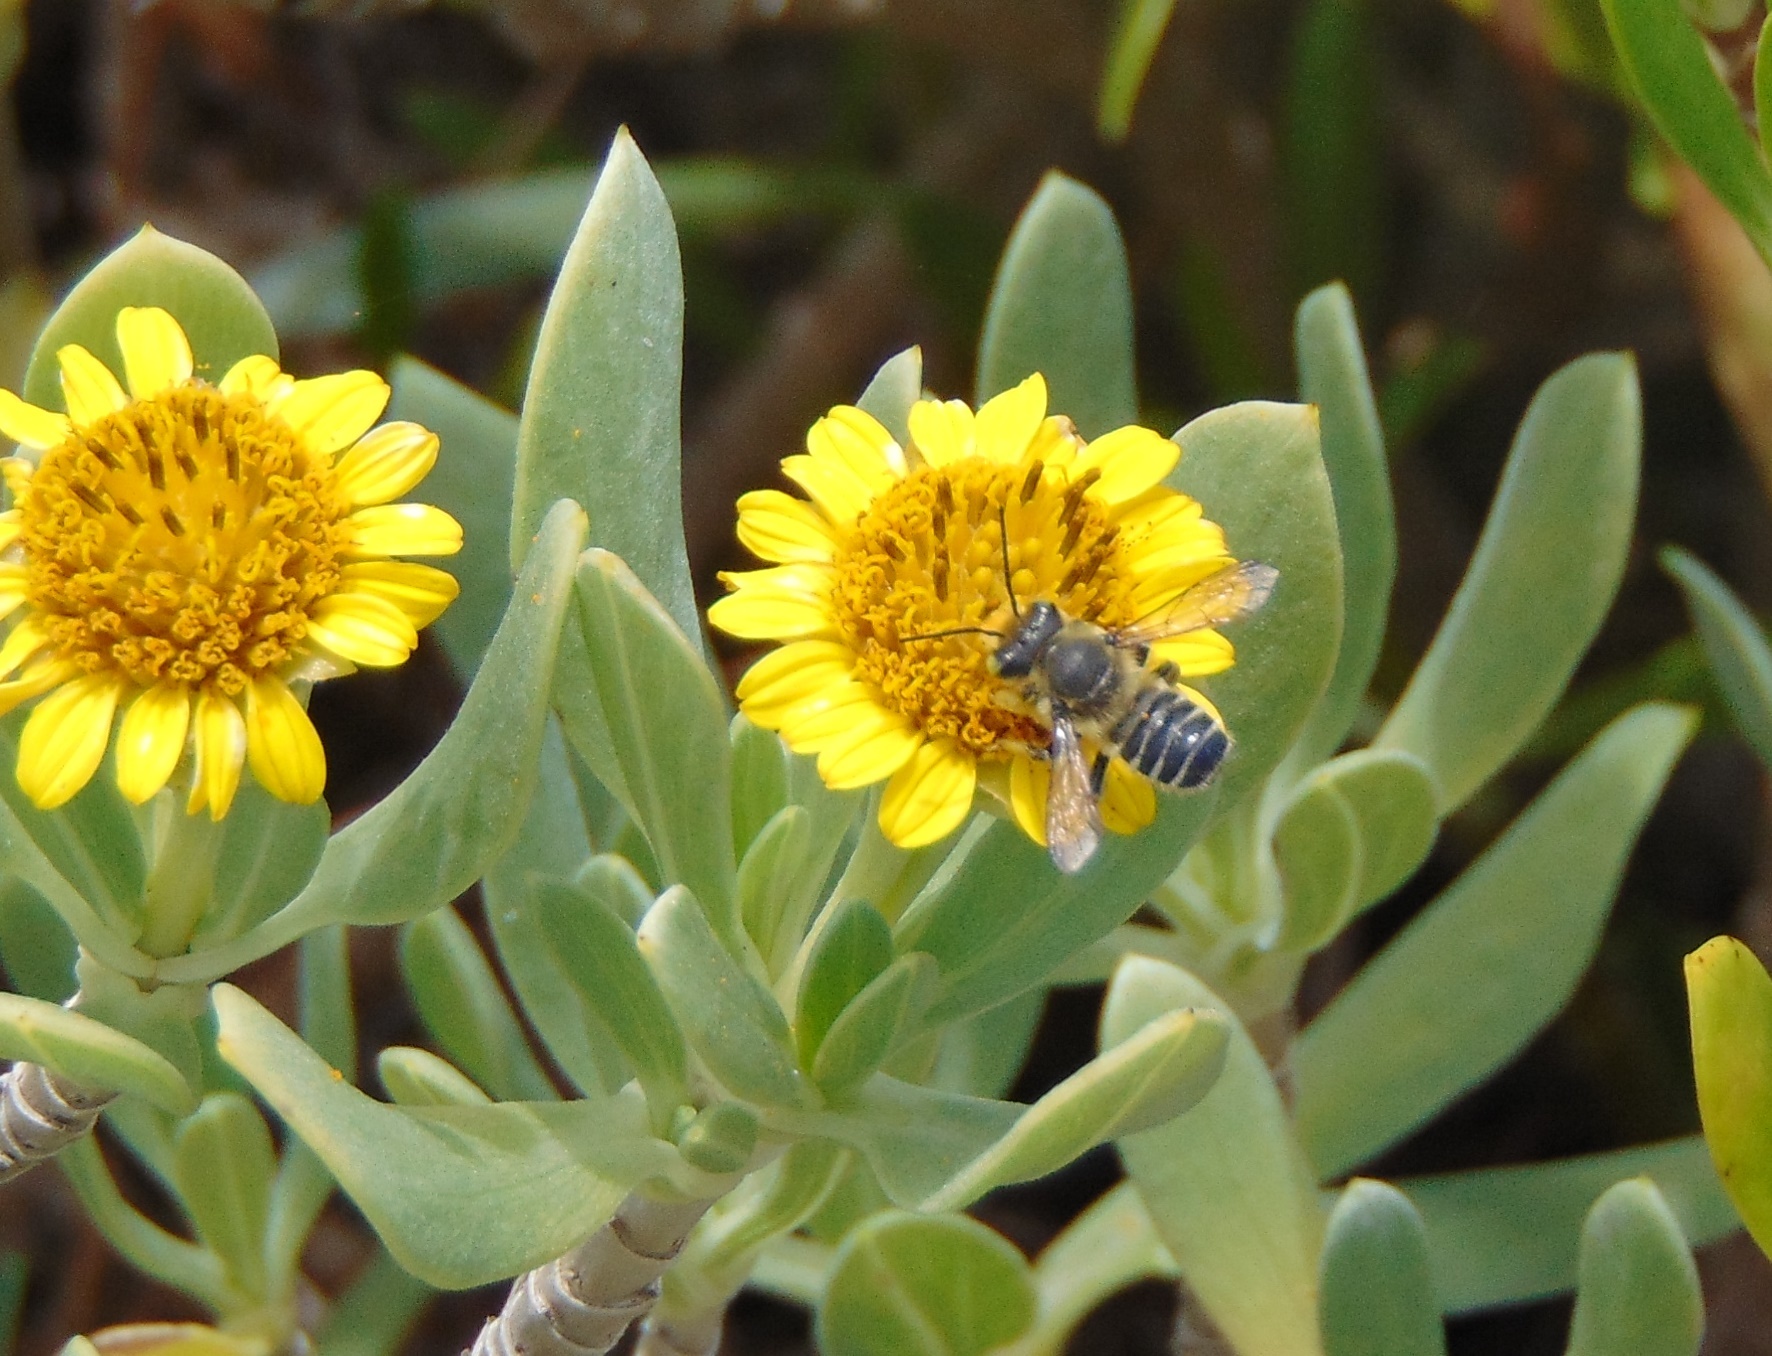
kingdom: Animalia
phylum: Arthropoda
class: Insecta
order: Hymenoptera
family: Megachilidae
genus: Megachile
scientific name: Megachile pruina
